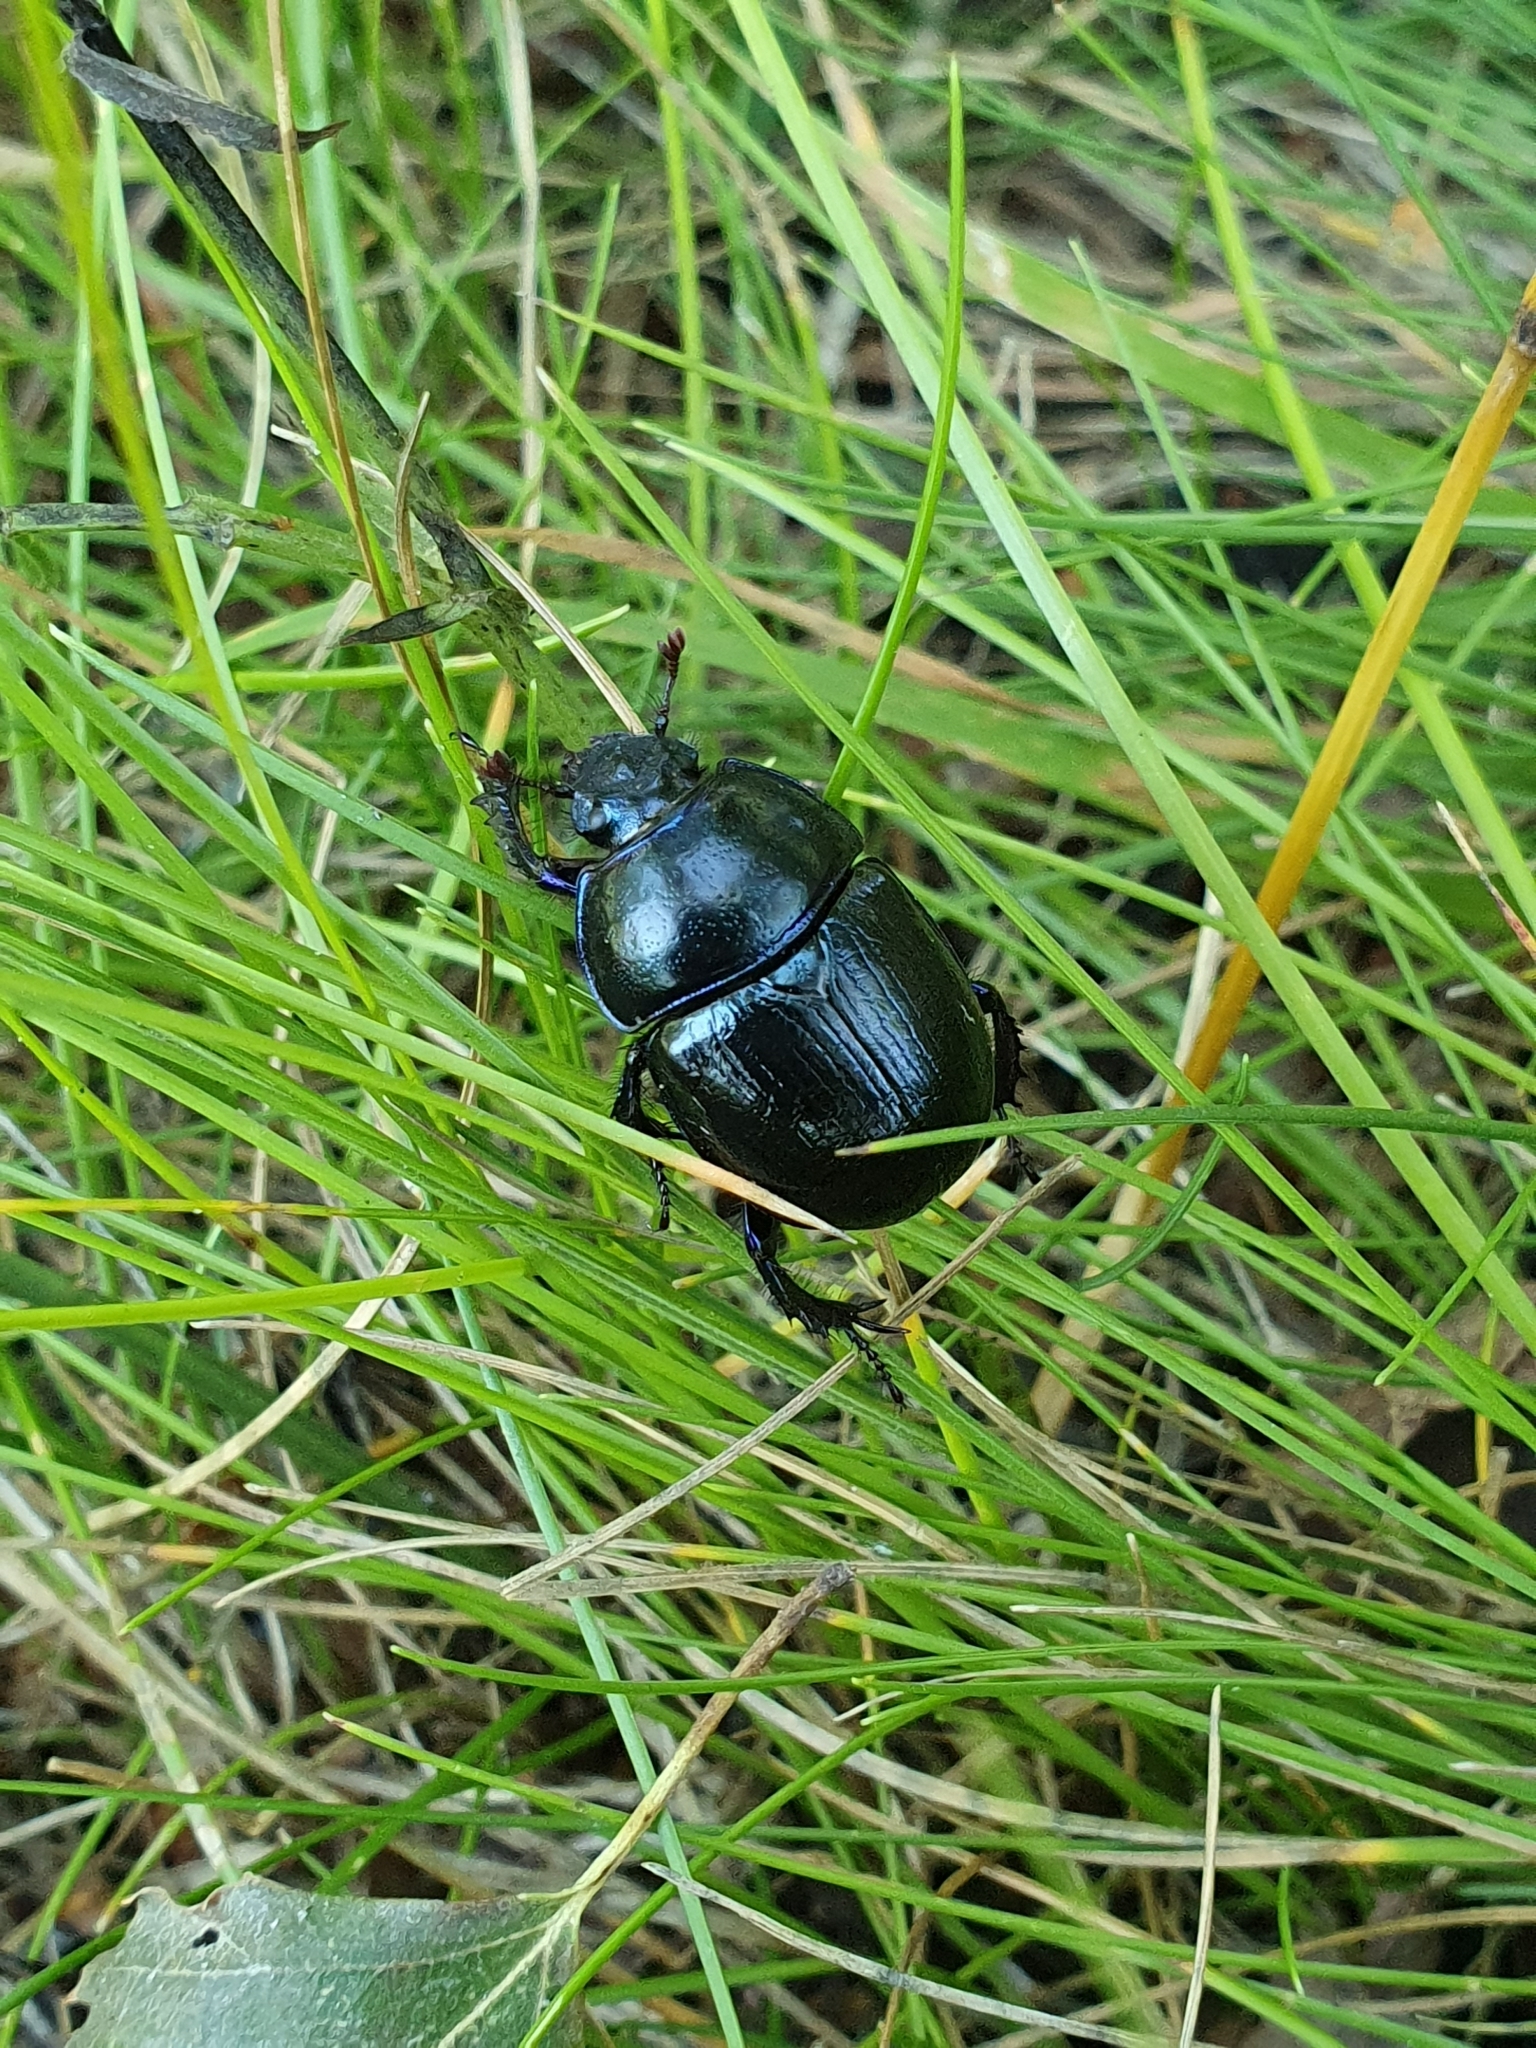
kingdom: Animalia
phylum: Arthropoda
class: Insecta
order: Coleoptera
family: Geotrupidae
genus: Anoplotrupes
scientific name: Anoplotrupes stercorosus
